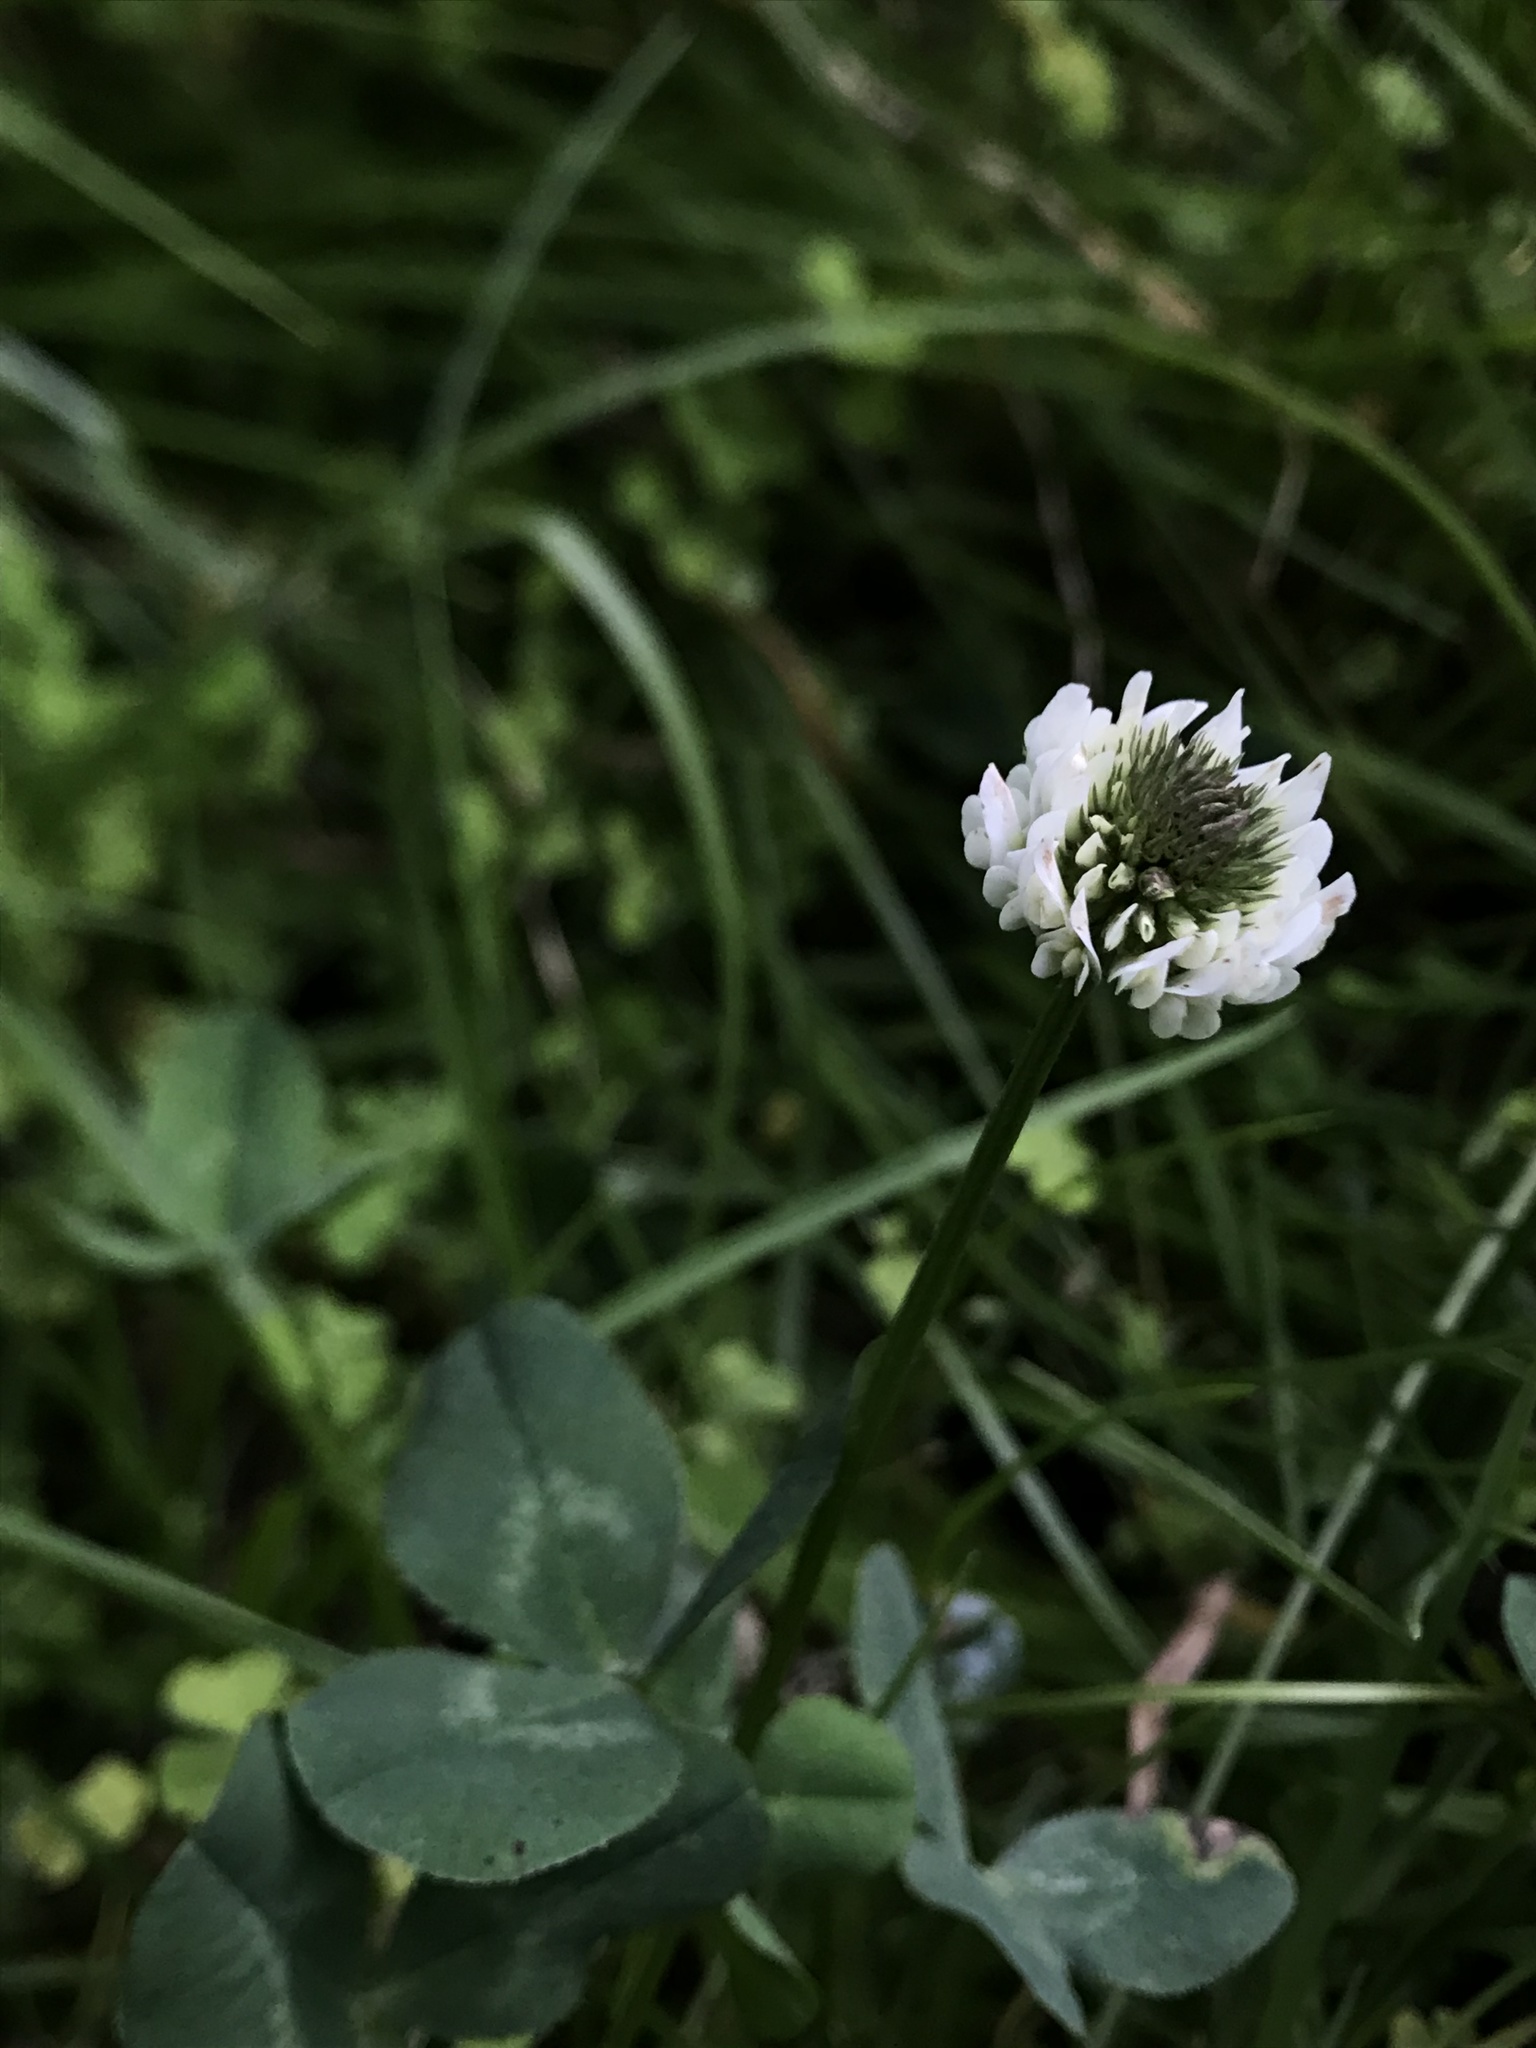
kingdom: Plantae
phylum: Tracheophyta
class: Magnoliopsida
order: Fabales
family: Fabaceae
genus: Trifolium
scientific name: Trifolium repens
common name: White clover
